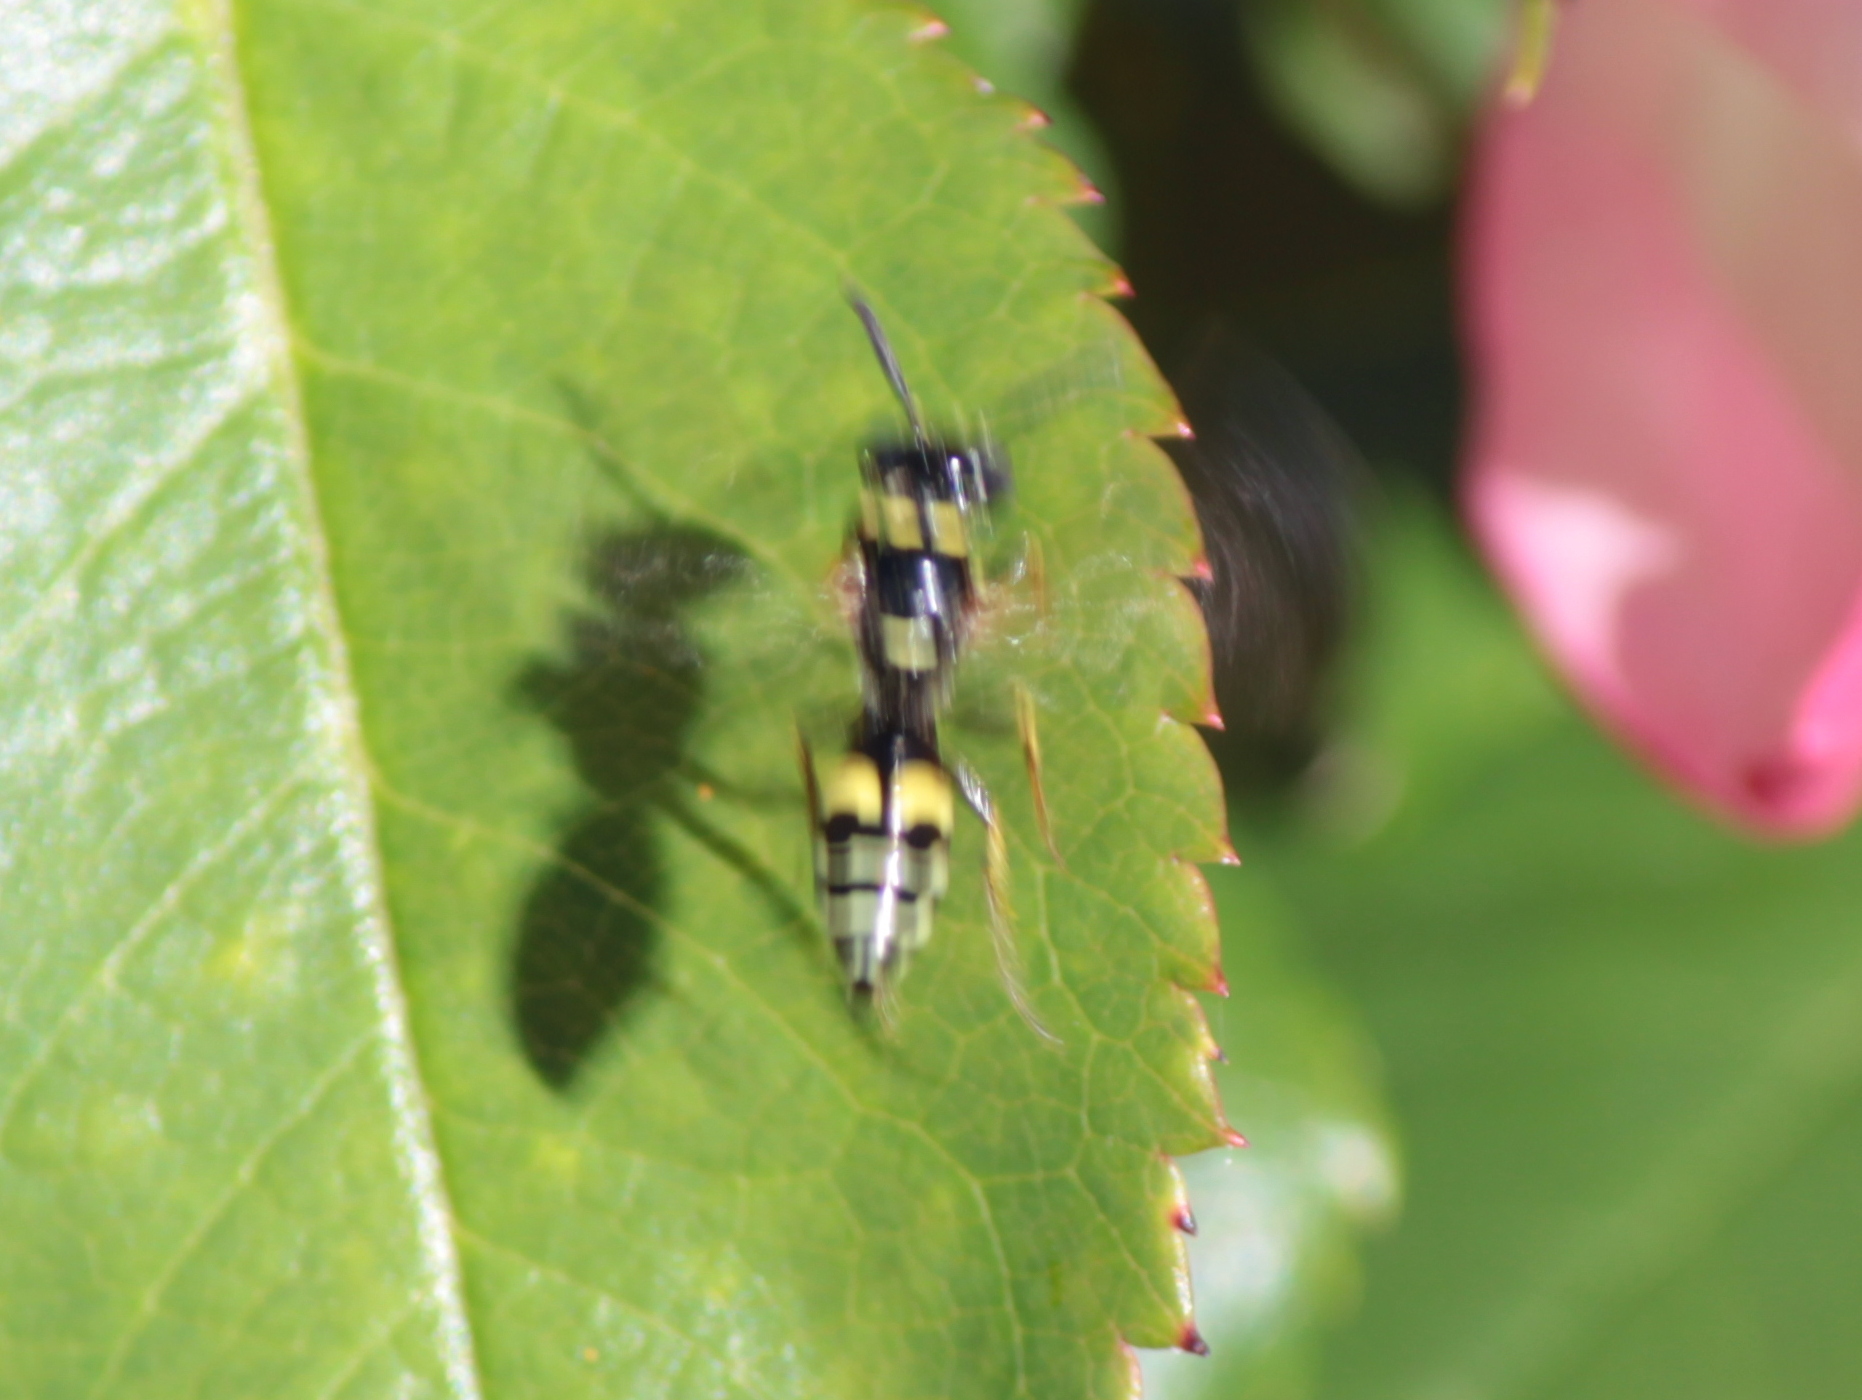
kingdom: Animalia
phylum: Arthropoda
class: Insecta
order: Hymenoptera
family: Crabronidae
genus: Philanthus
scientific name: Philanthus bilunatus
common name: Two moons beewolf
